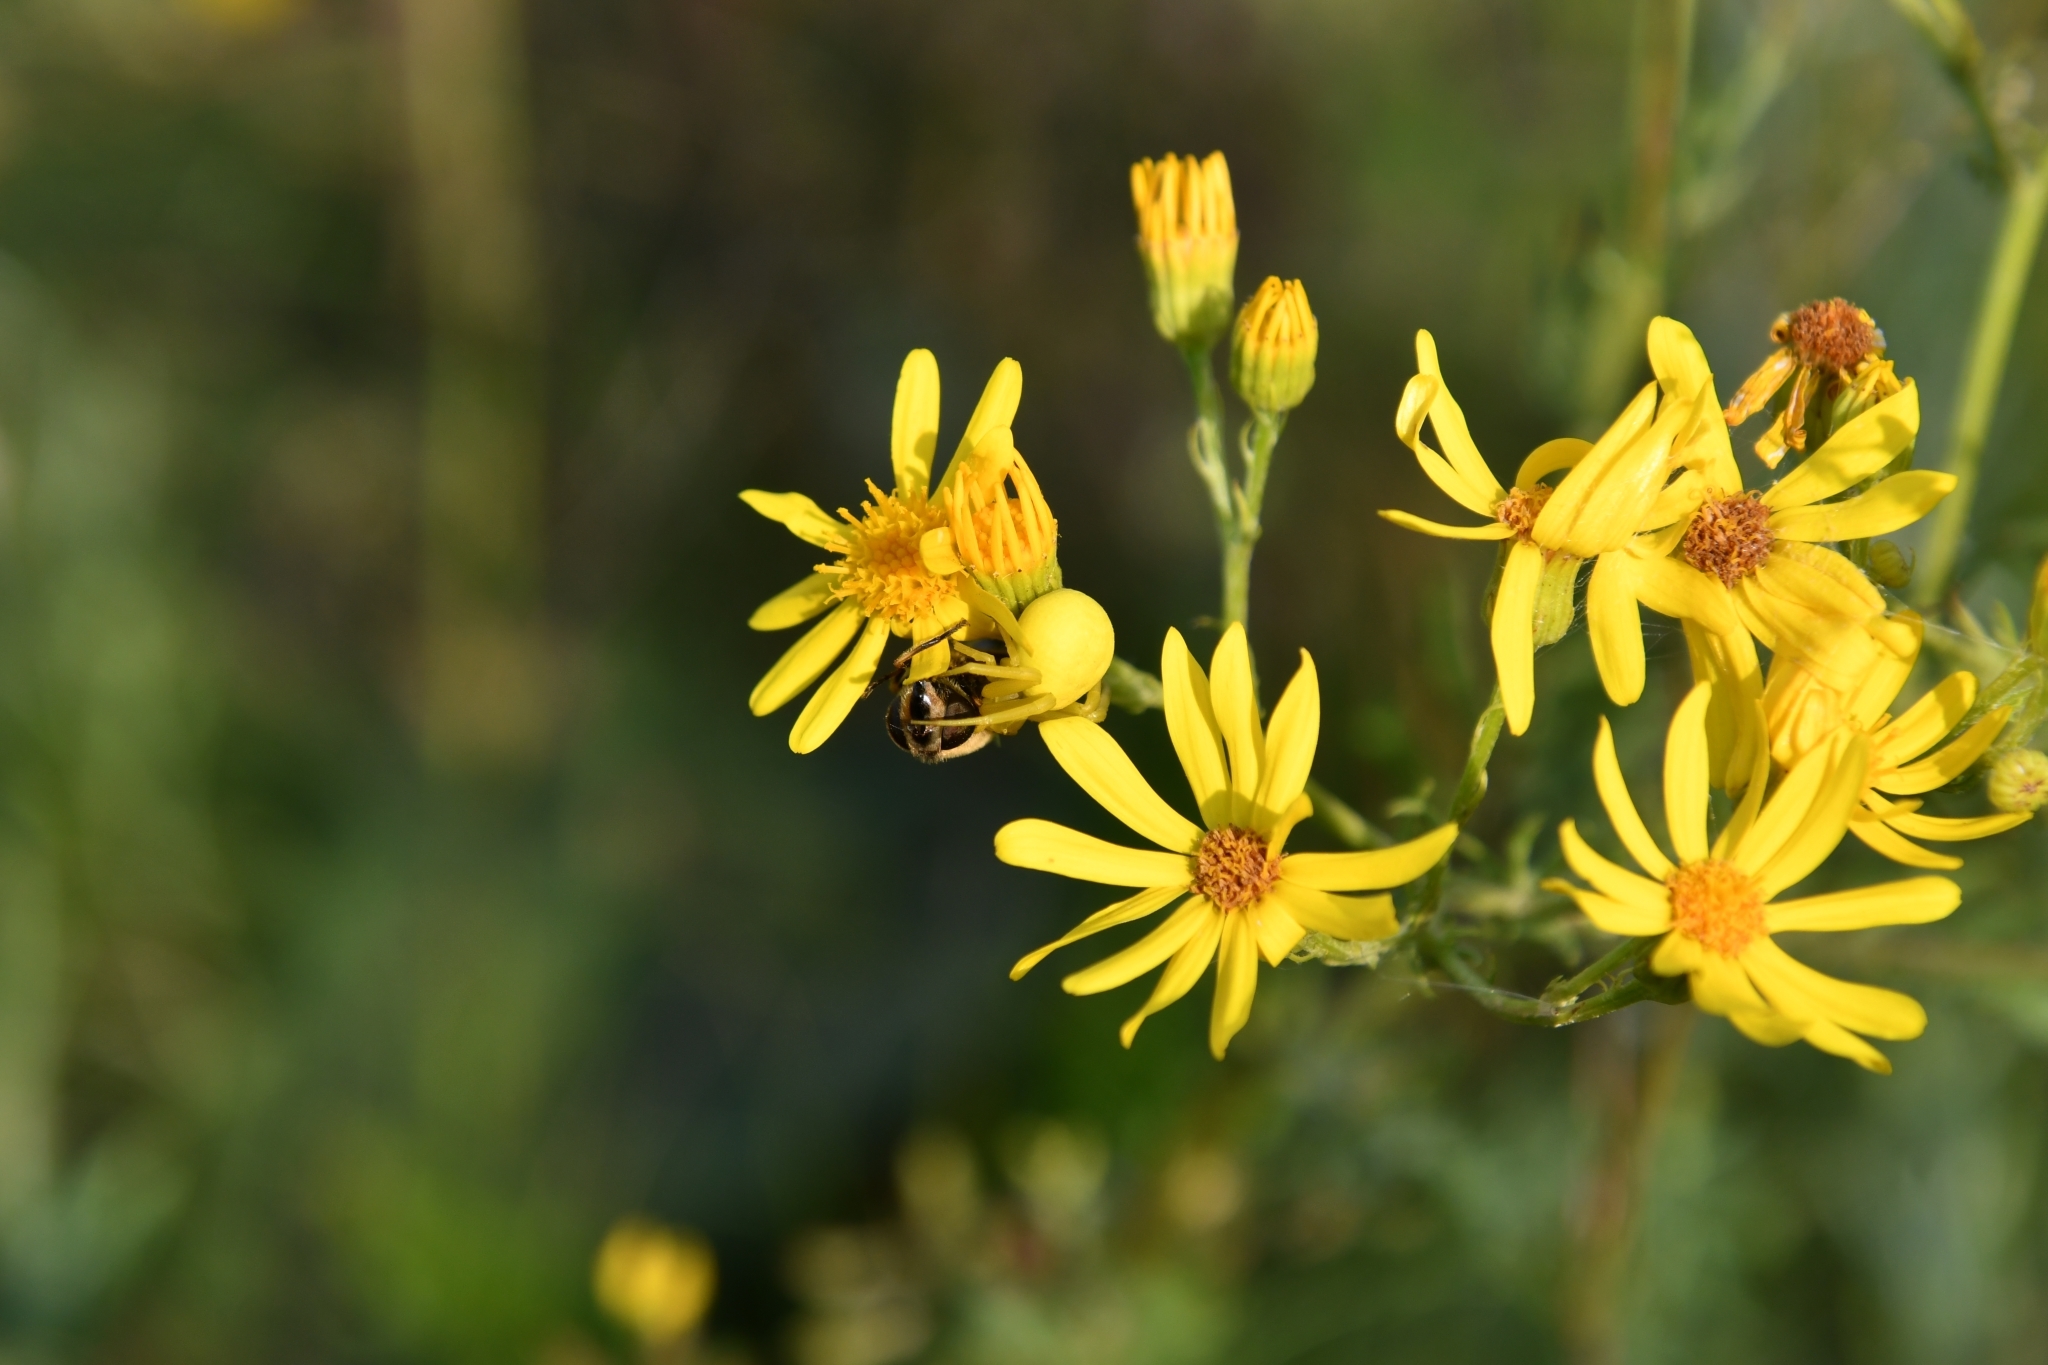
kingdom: Animalia
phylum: Arthropoda
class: Arachnida
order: Araneae
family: Thomisidae
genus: Misumena
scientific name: Misumena vatia
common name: Goldenrod crab spider
